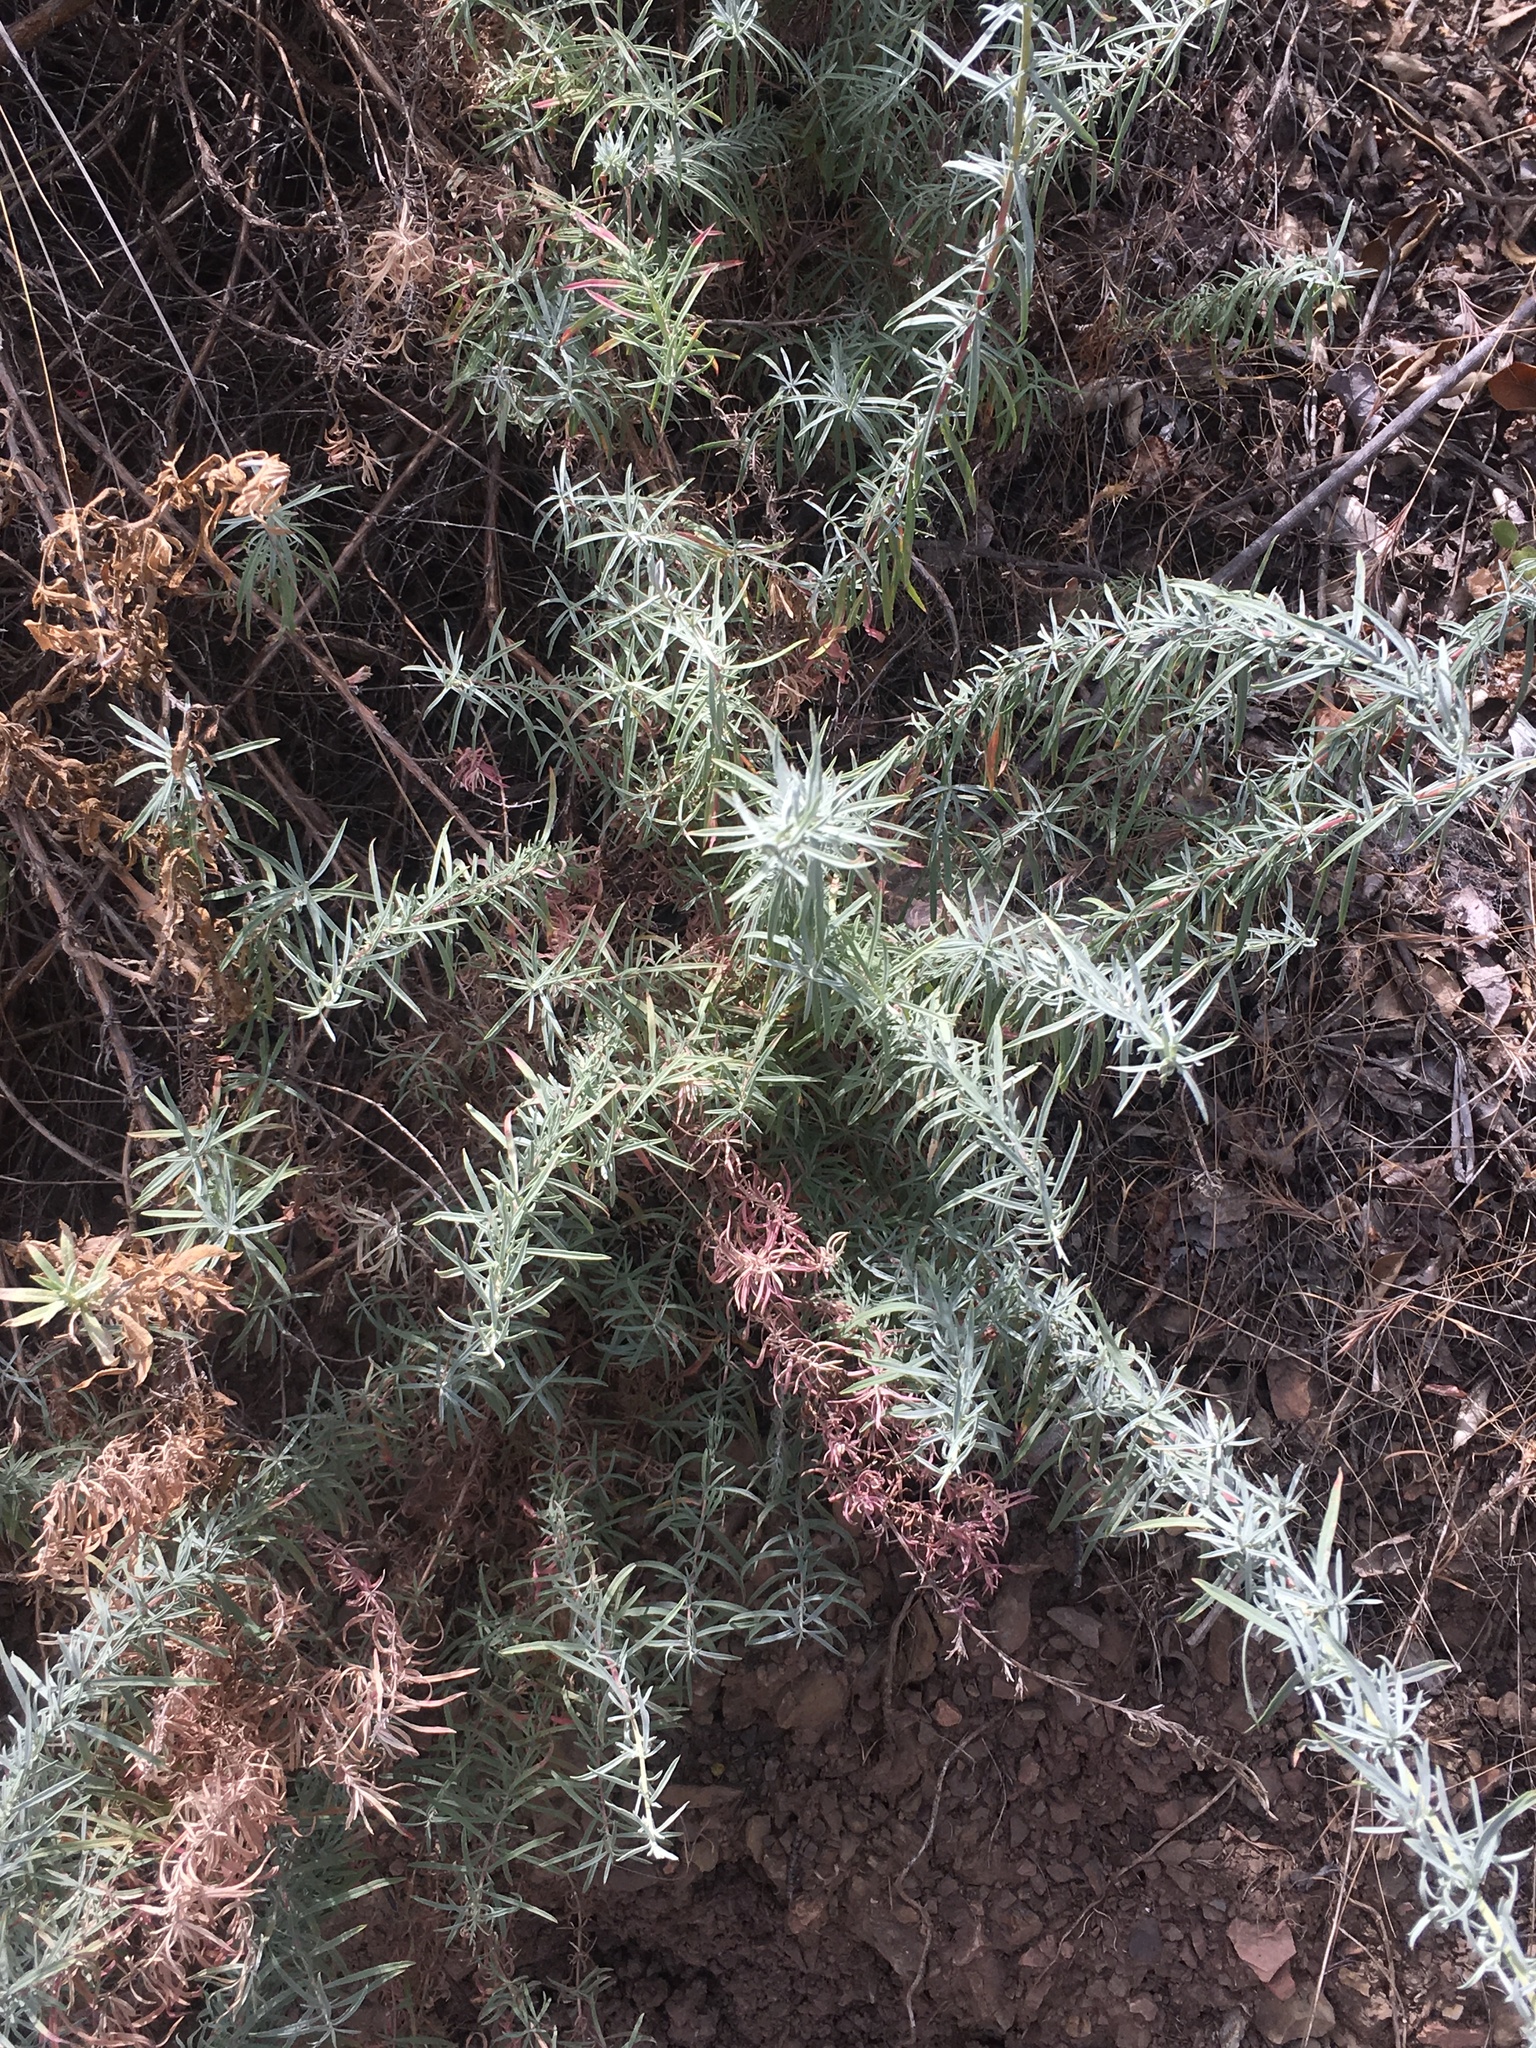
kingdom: Plantae
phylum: Tracheophyta
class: Magnoliopsida
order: Myrtales
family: Onagraceae
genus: Epilobium
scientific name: Epilobium canum
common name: California-fuchsia
